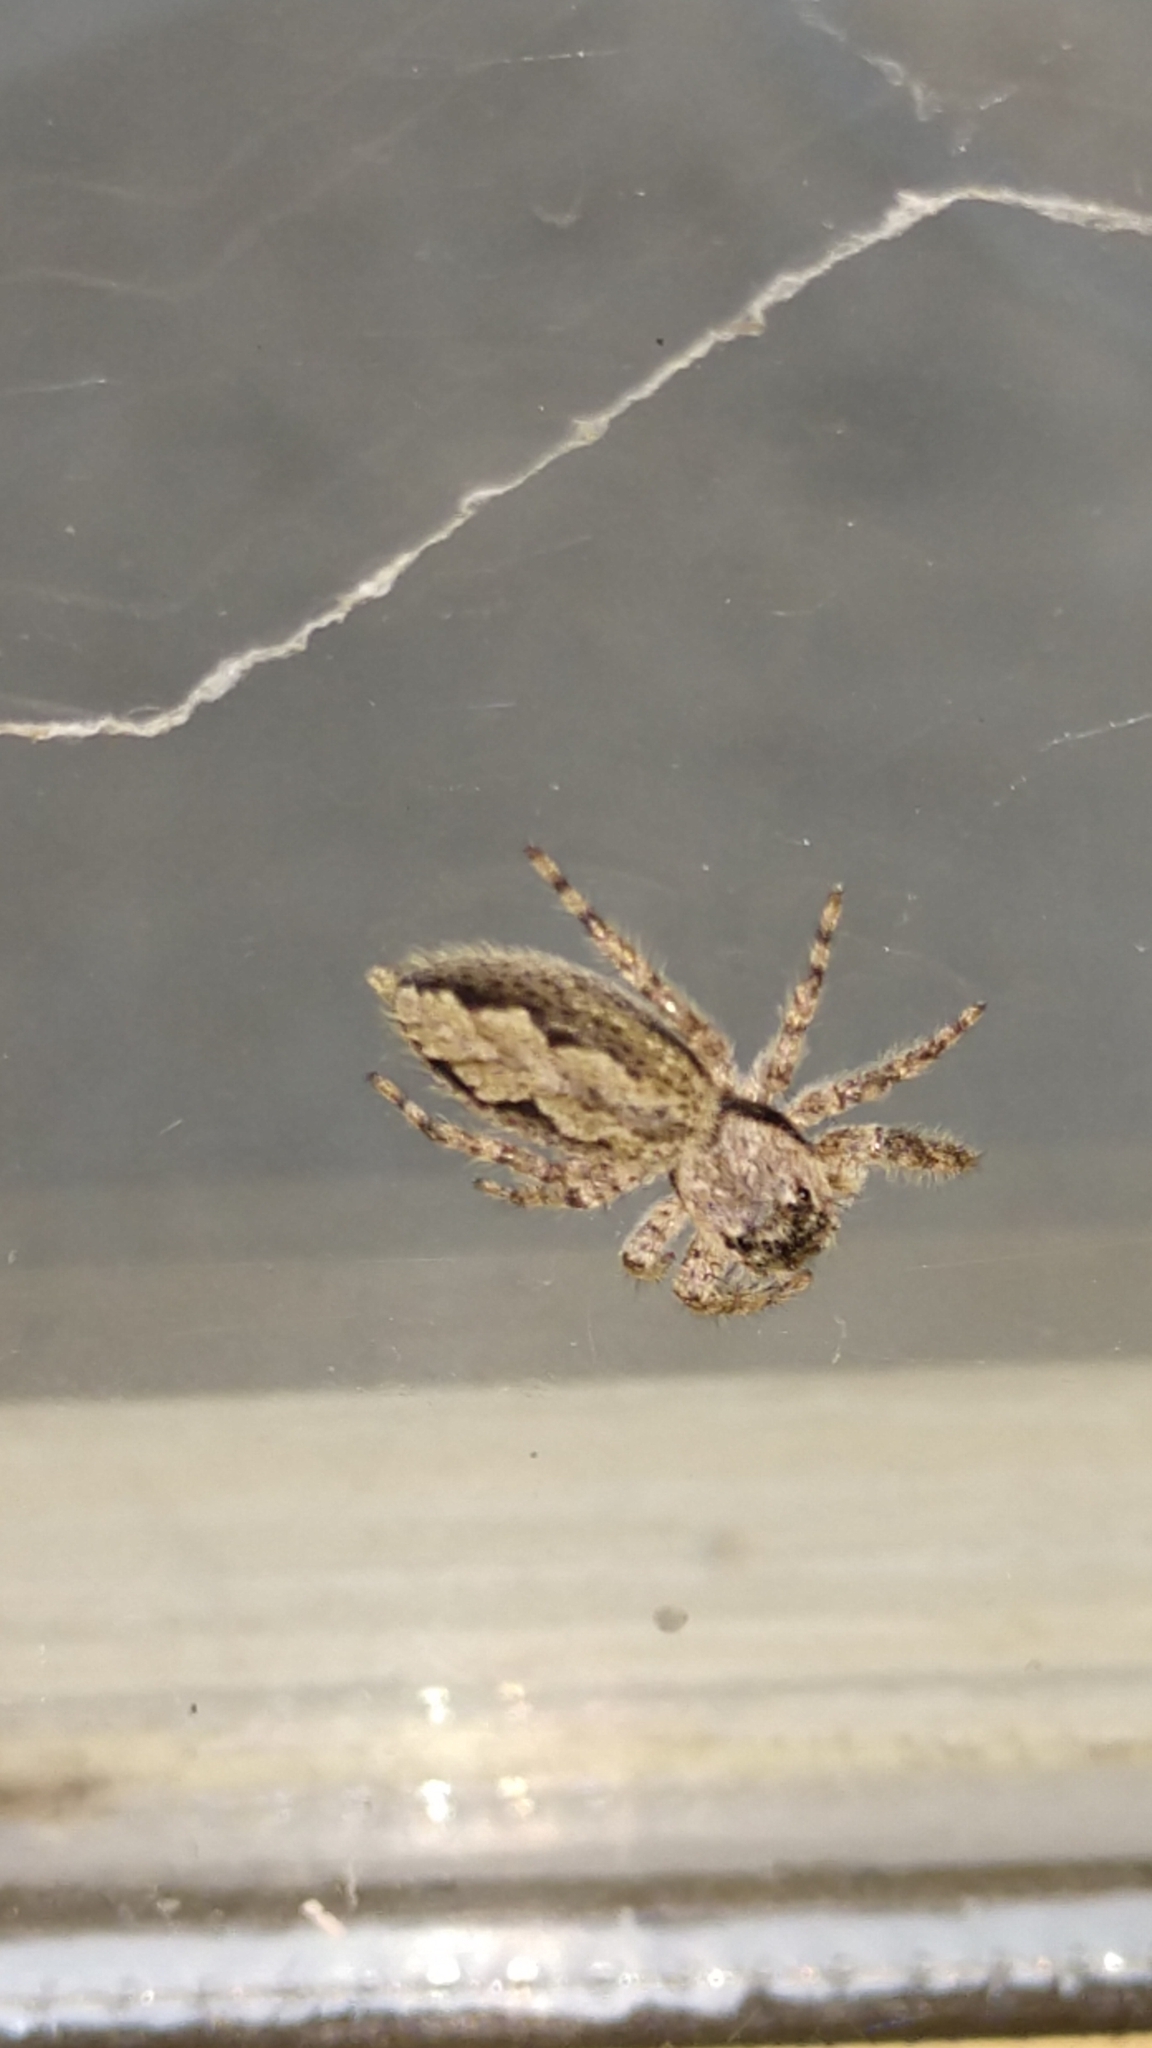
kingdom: Animalia
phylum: Arthropoda
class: Arachnida
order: Araneae
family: Salticidae
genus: Platycryptus
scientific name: Platycryptus undatus
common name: Tan jumping spider
